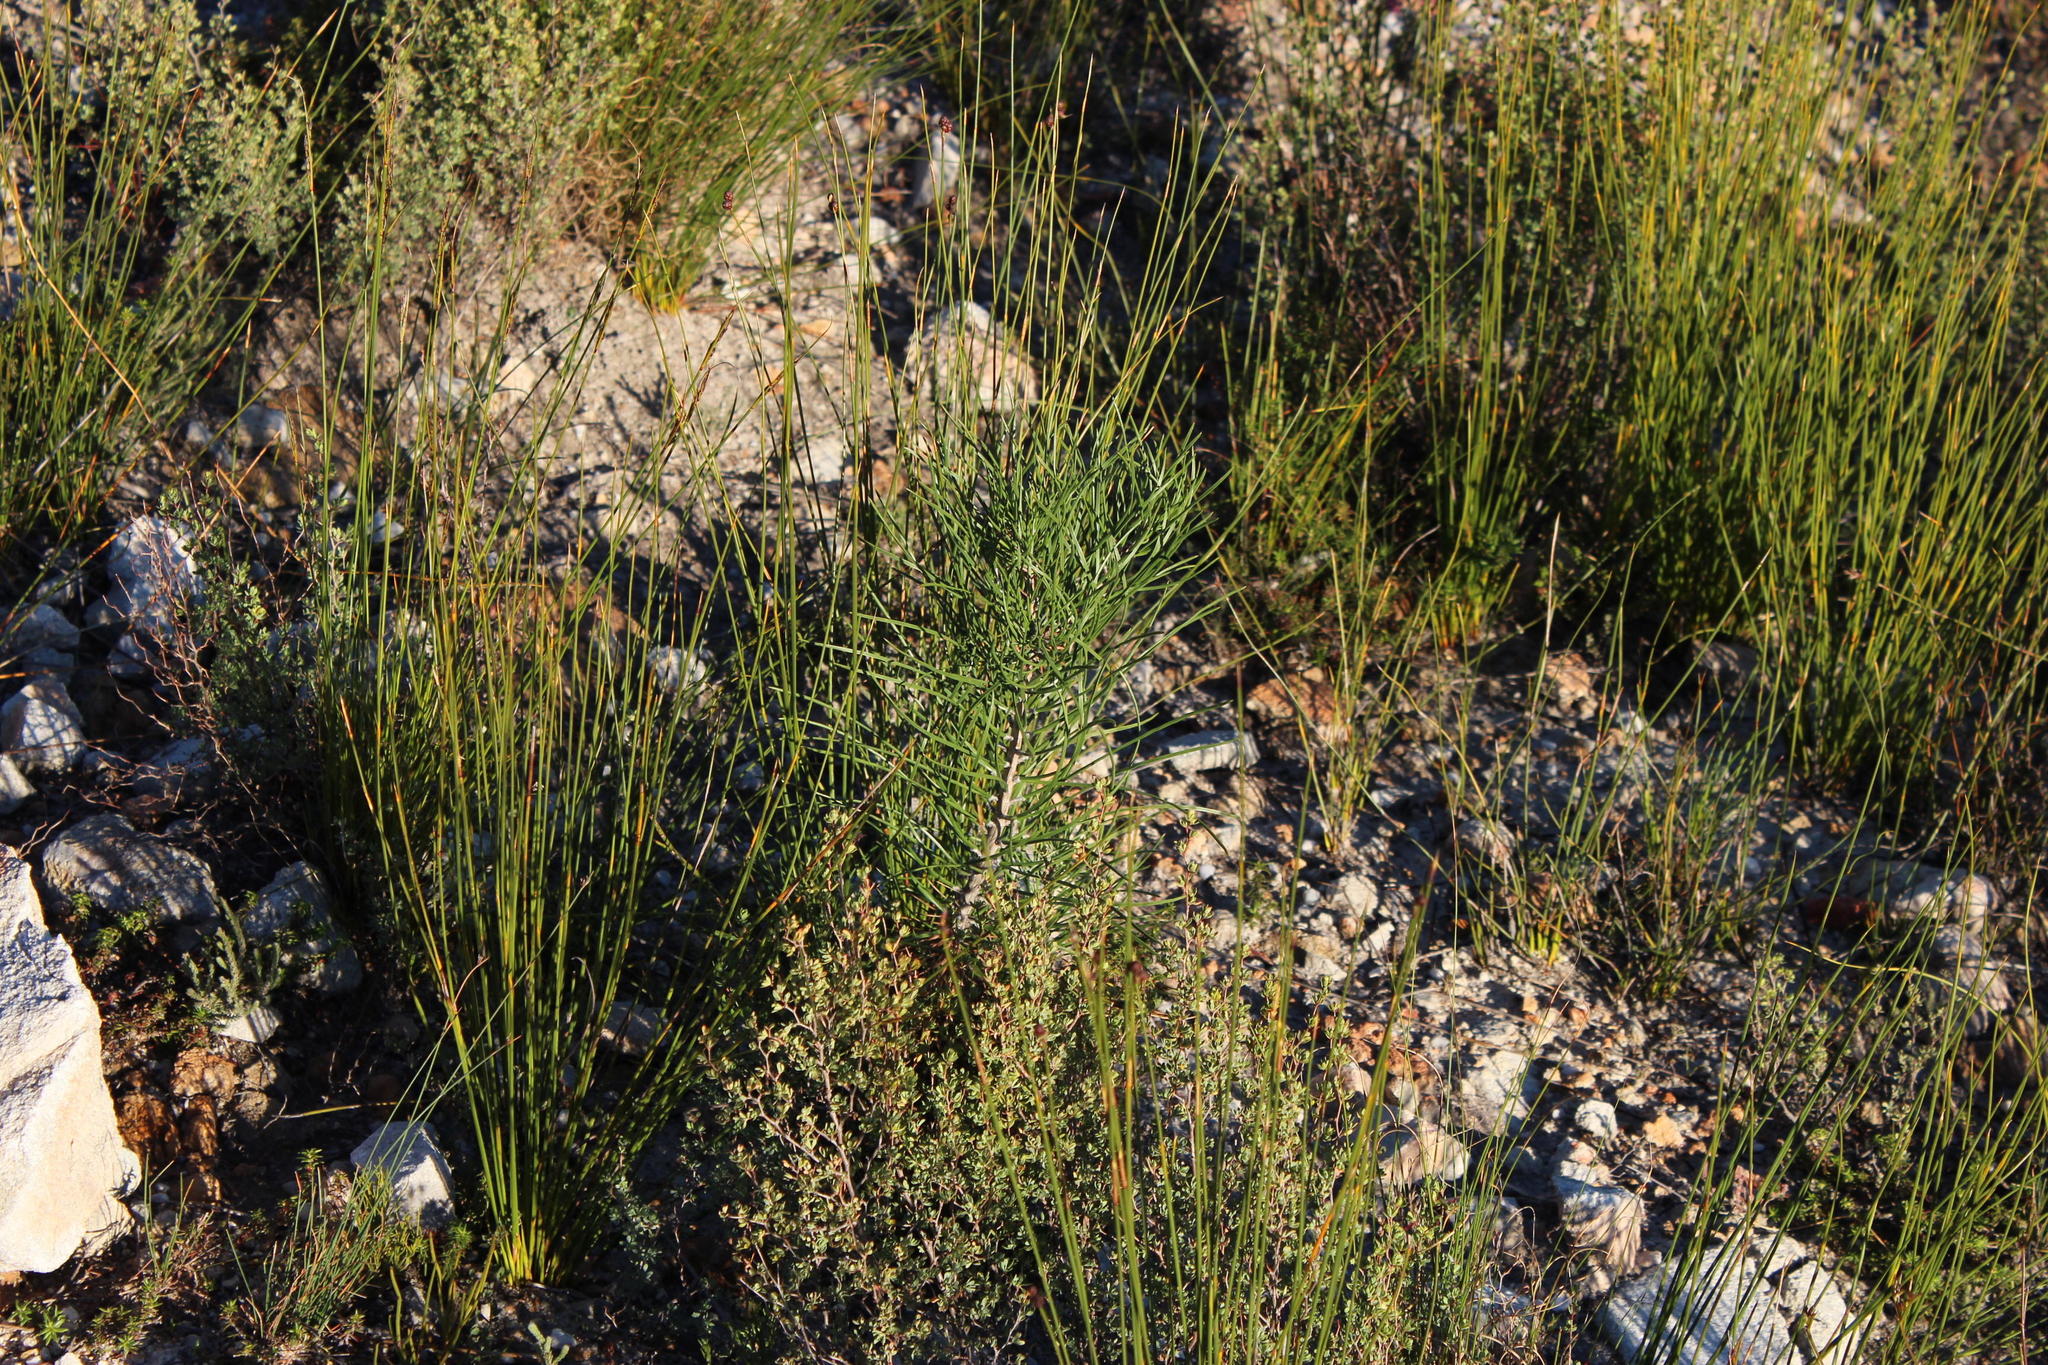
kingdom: Plantae
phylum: Tracheophyta
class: Pinopsida
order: Pinales
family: Pinaceae
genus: Pinus
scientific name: Pinus pinaster
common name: Maritime pine
